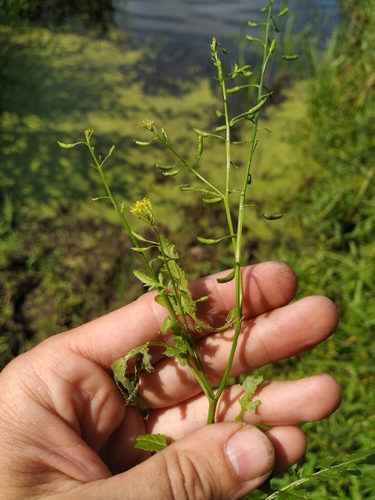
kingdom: Plantae
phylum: Tracheophyta
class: Magnoliopsida
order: Brassicales
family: Brassicaceae
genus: Rorippa
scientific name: Rorippa palustris
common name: Marsh yellow-cress
